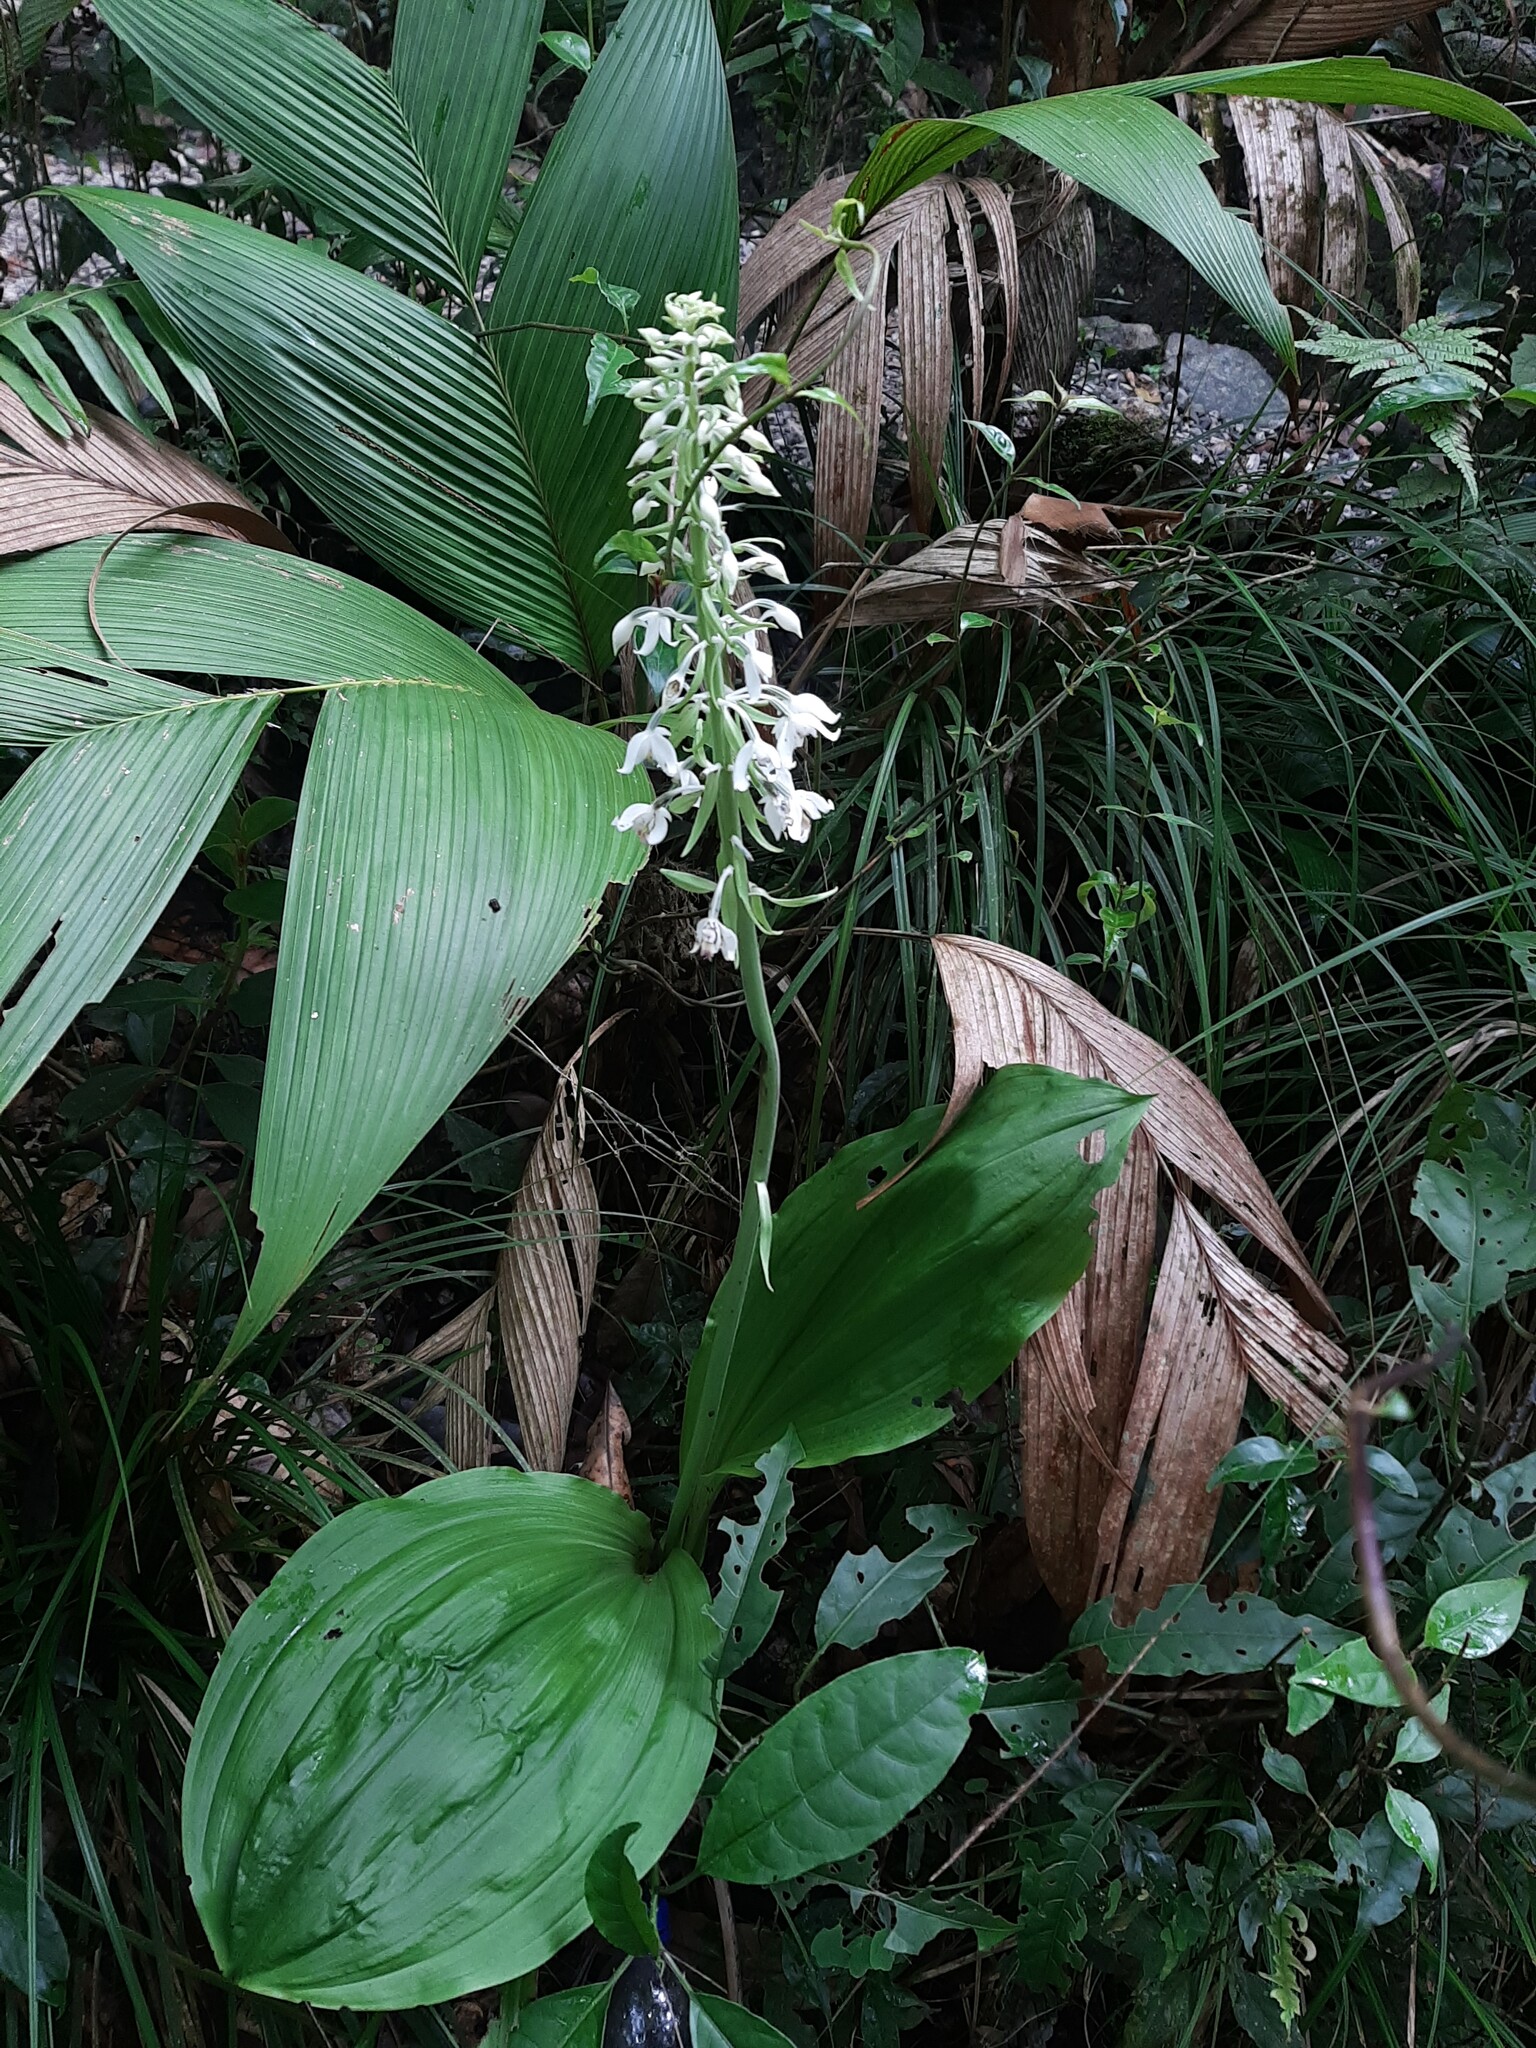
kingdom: Plantae
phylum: Tracheophyta
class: Liliopsida
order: Asparagales
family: Orchidaceae
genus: Calanthe
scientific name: Calanthe calanthoides
